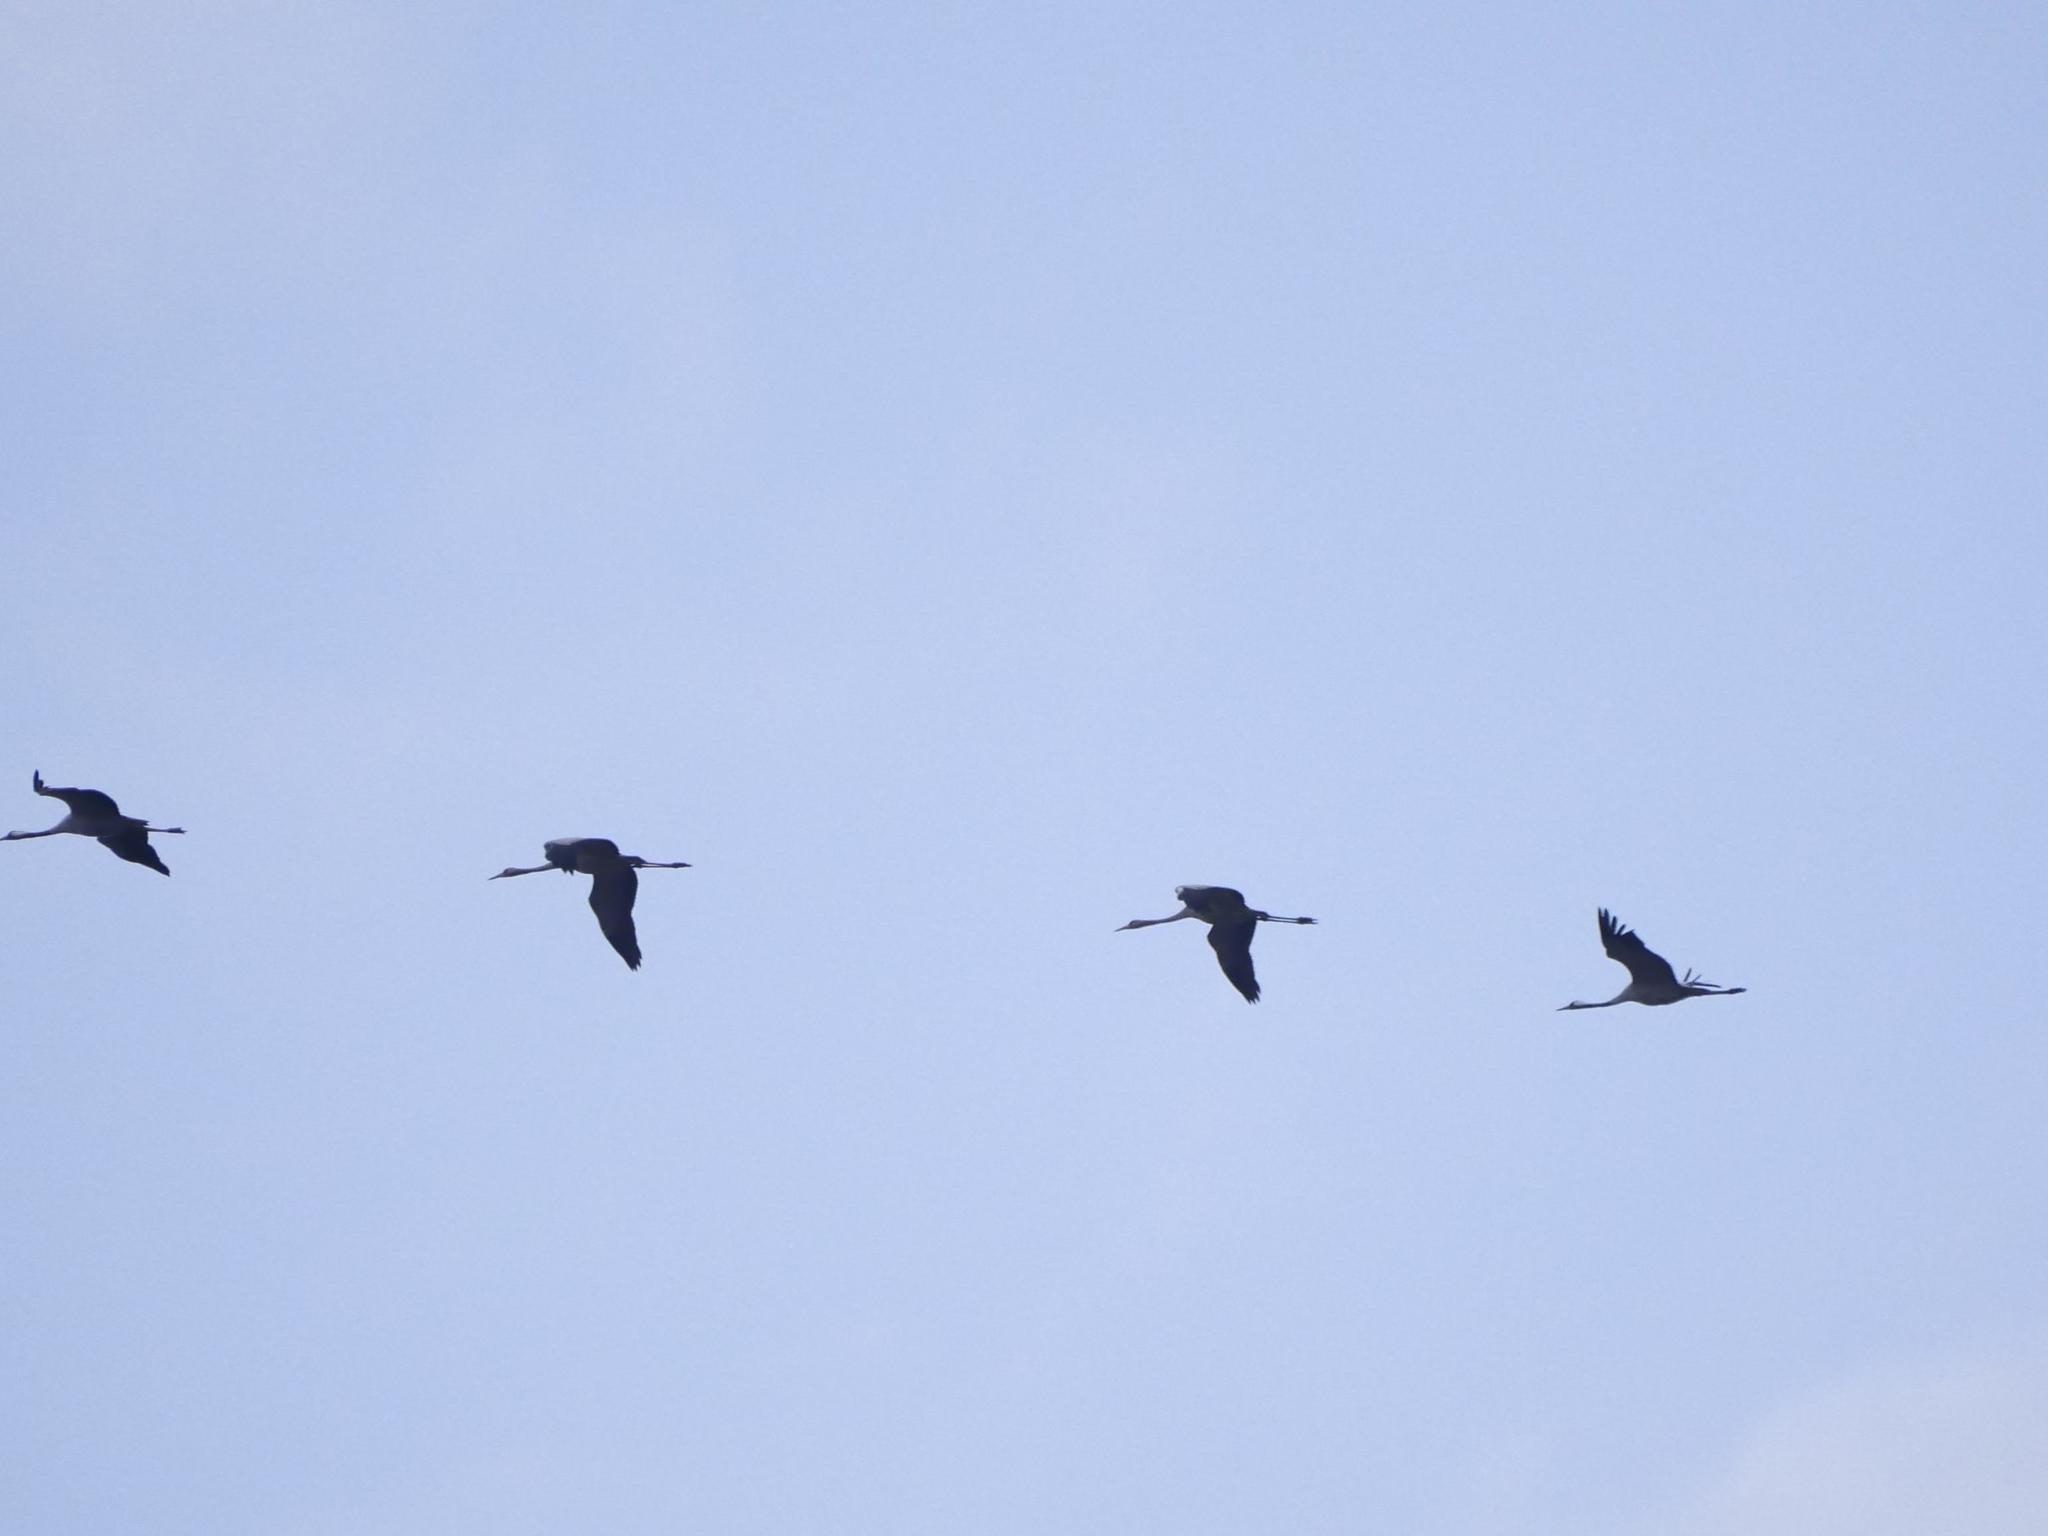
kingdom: Animalia
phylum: Chordata
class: Aves
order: Gruiformes
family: Gruidae
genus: Grus
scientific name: Grus grus
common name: Common crane
